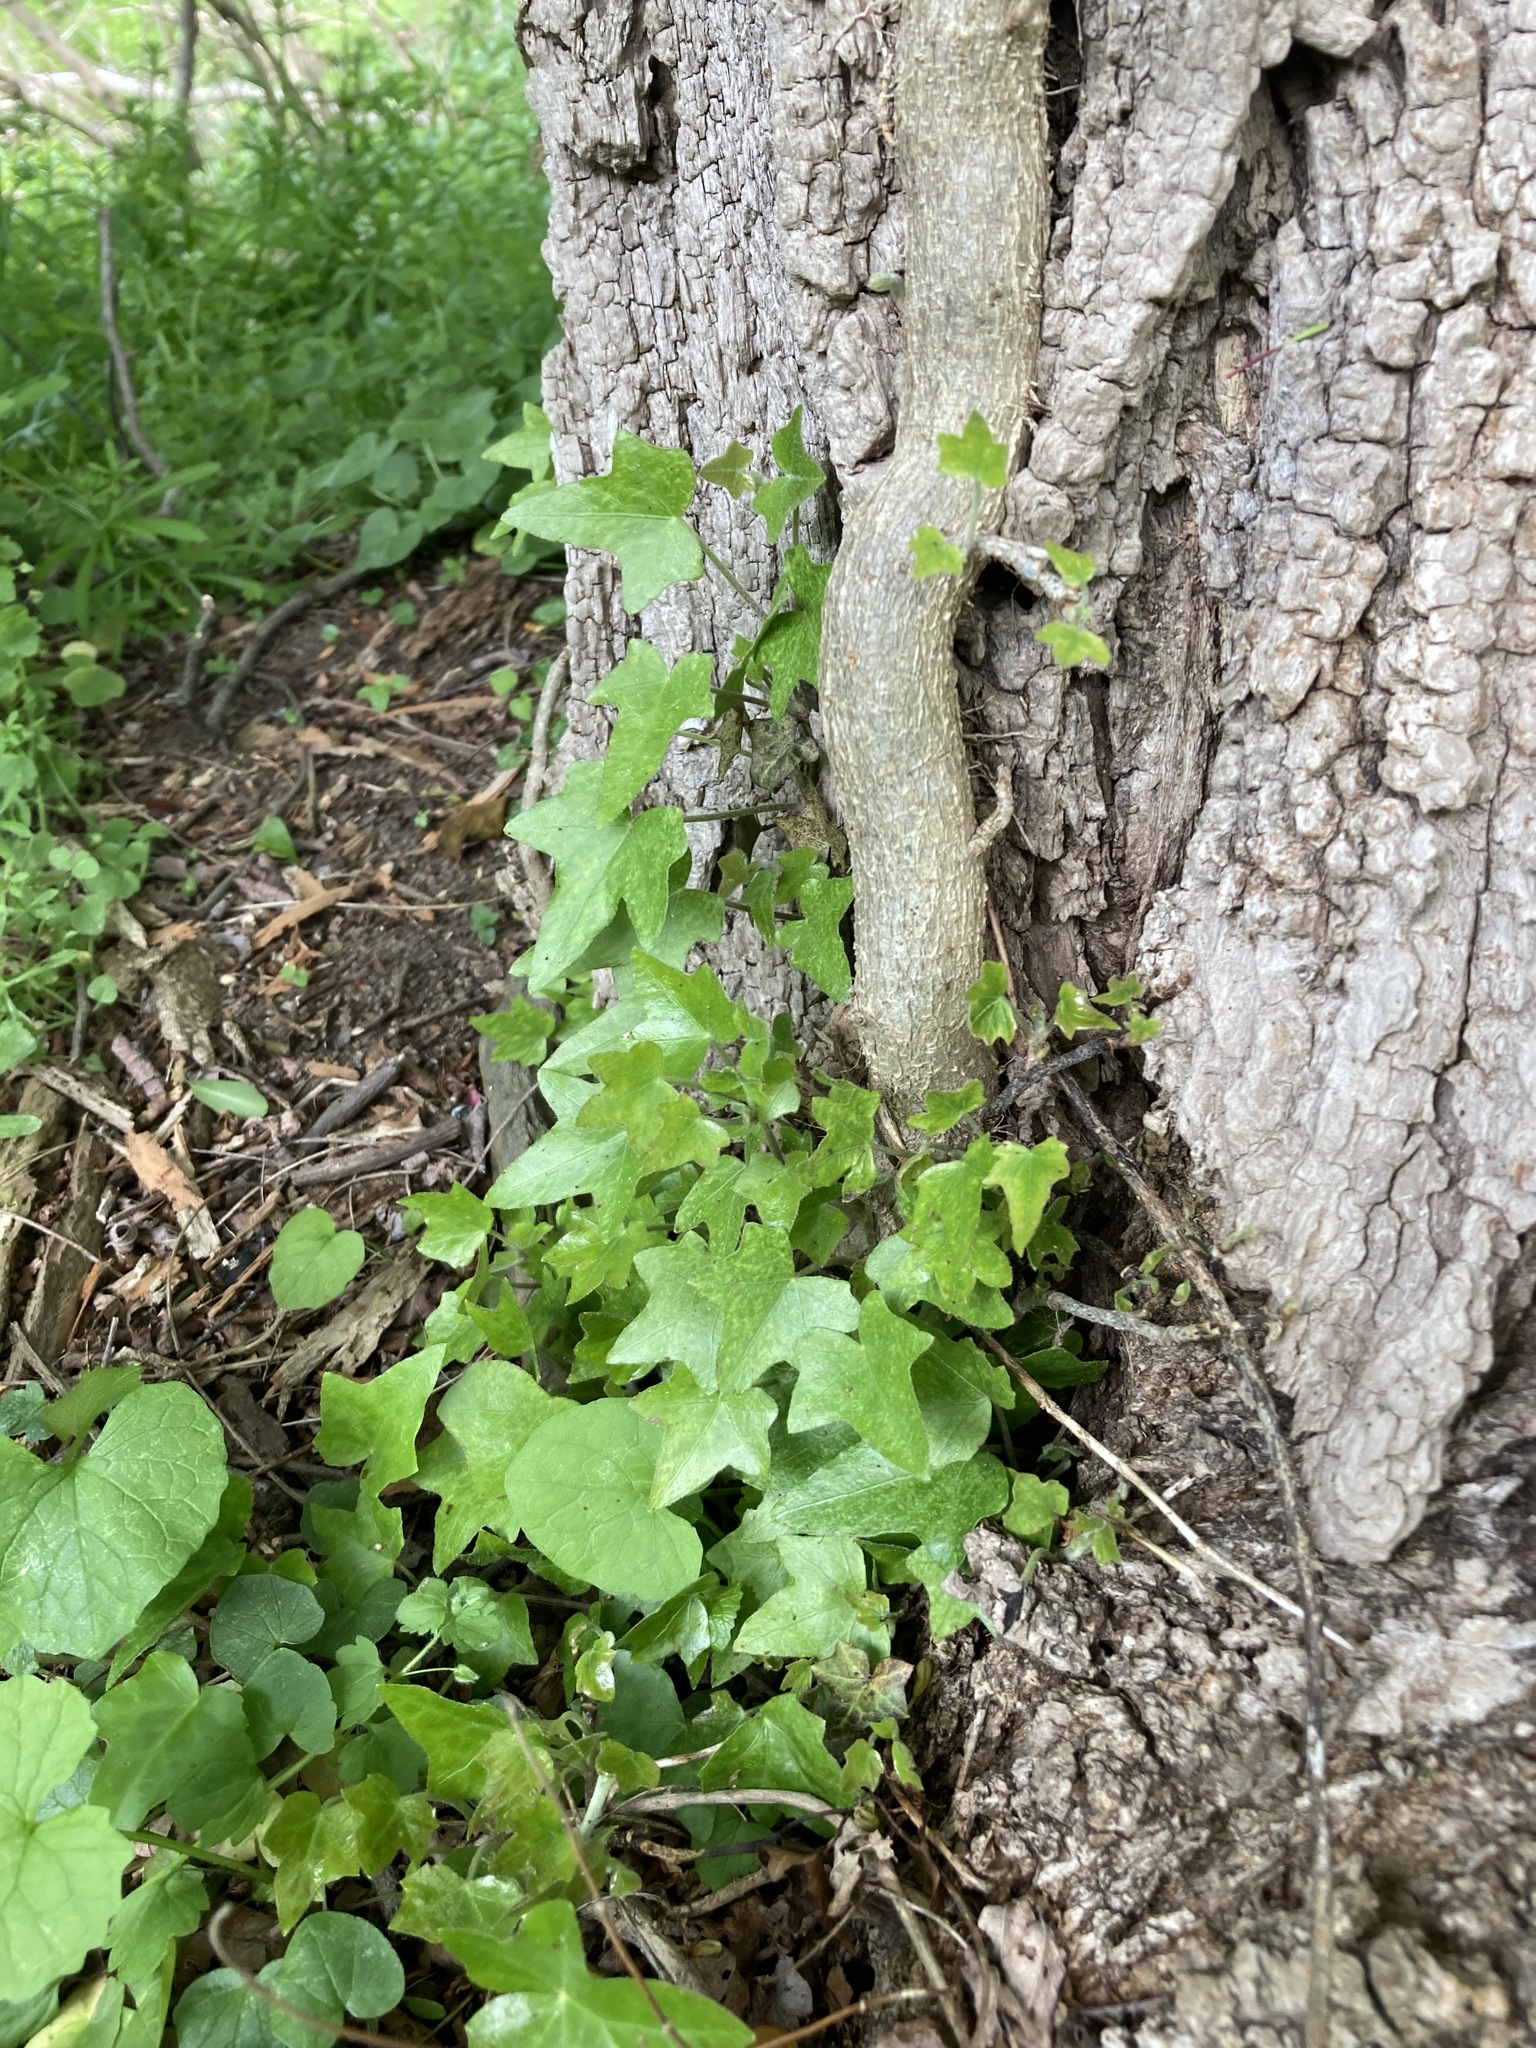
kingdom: Plantae
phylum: Tracheophyta
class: Magnoliopsida
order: Apiales
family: Araliaceae
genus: Hedera
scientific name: Hedera helix
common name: Ivy
